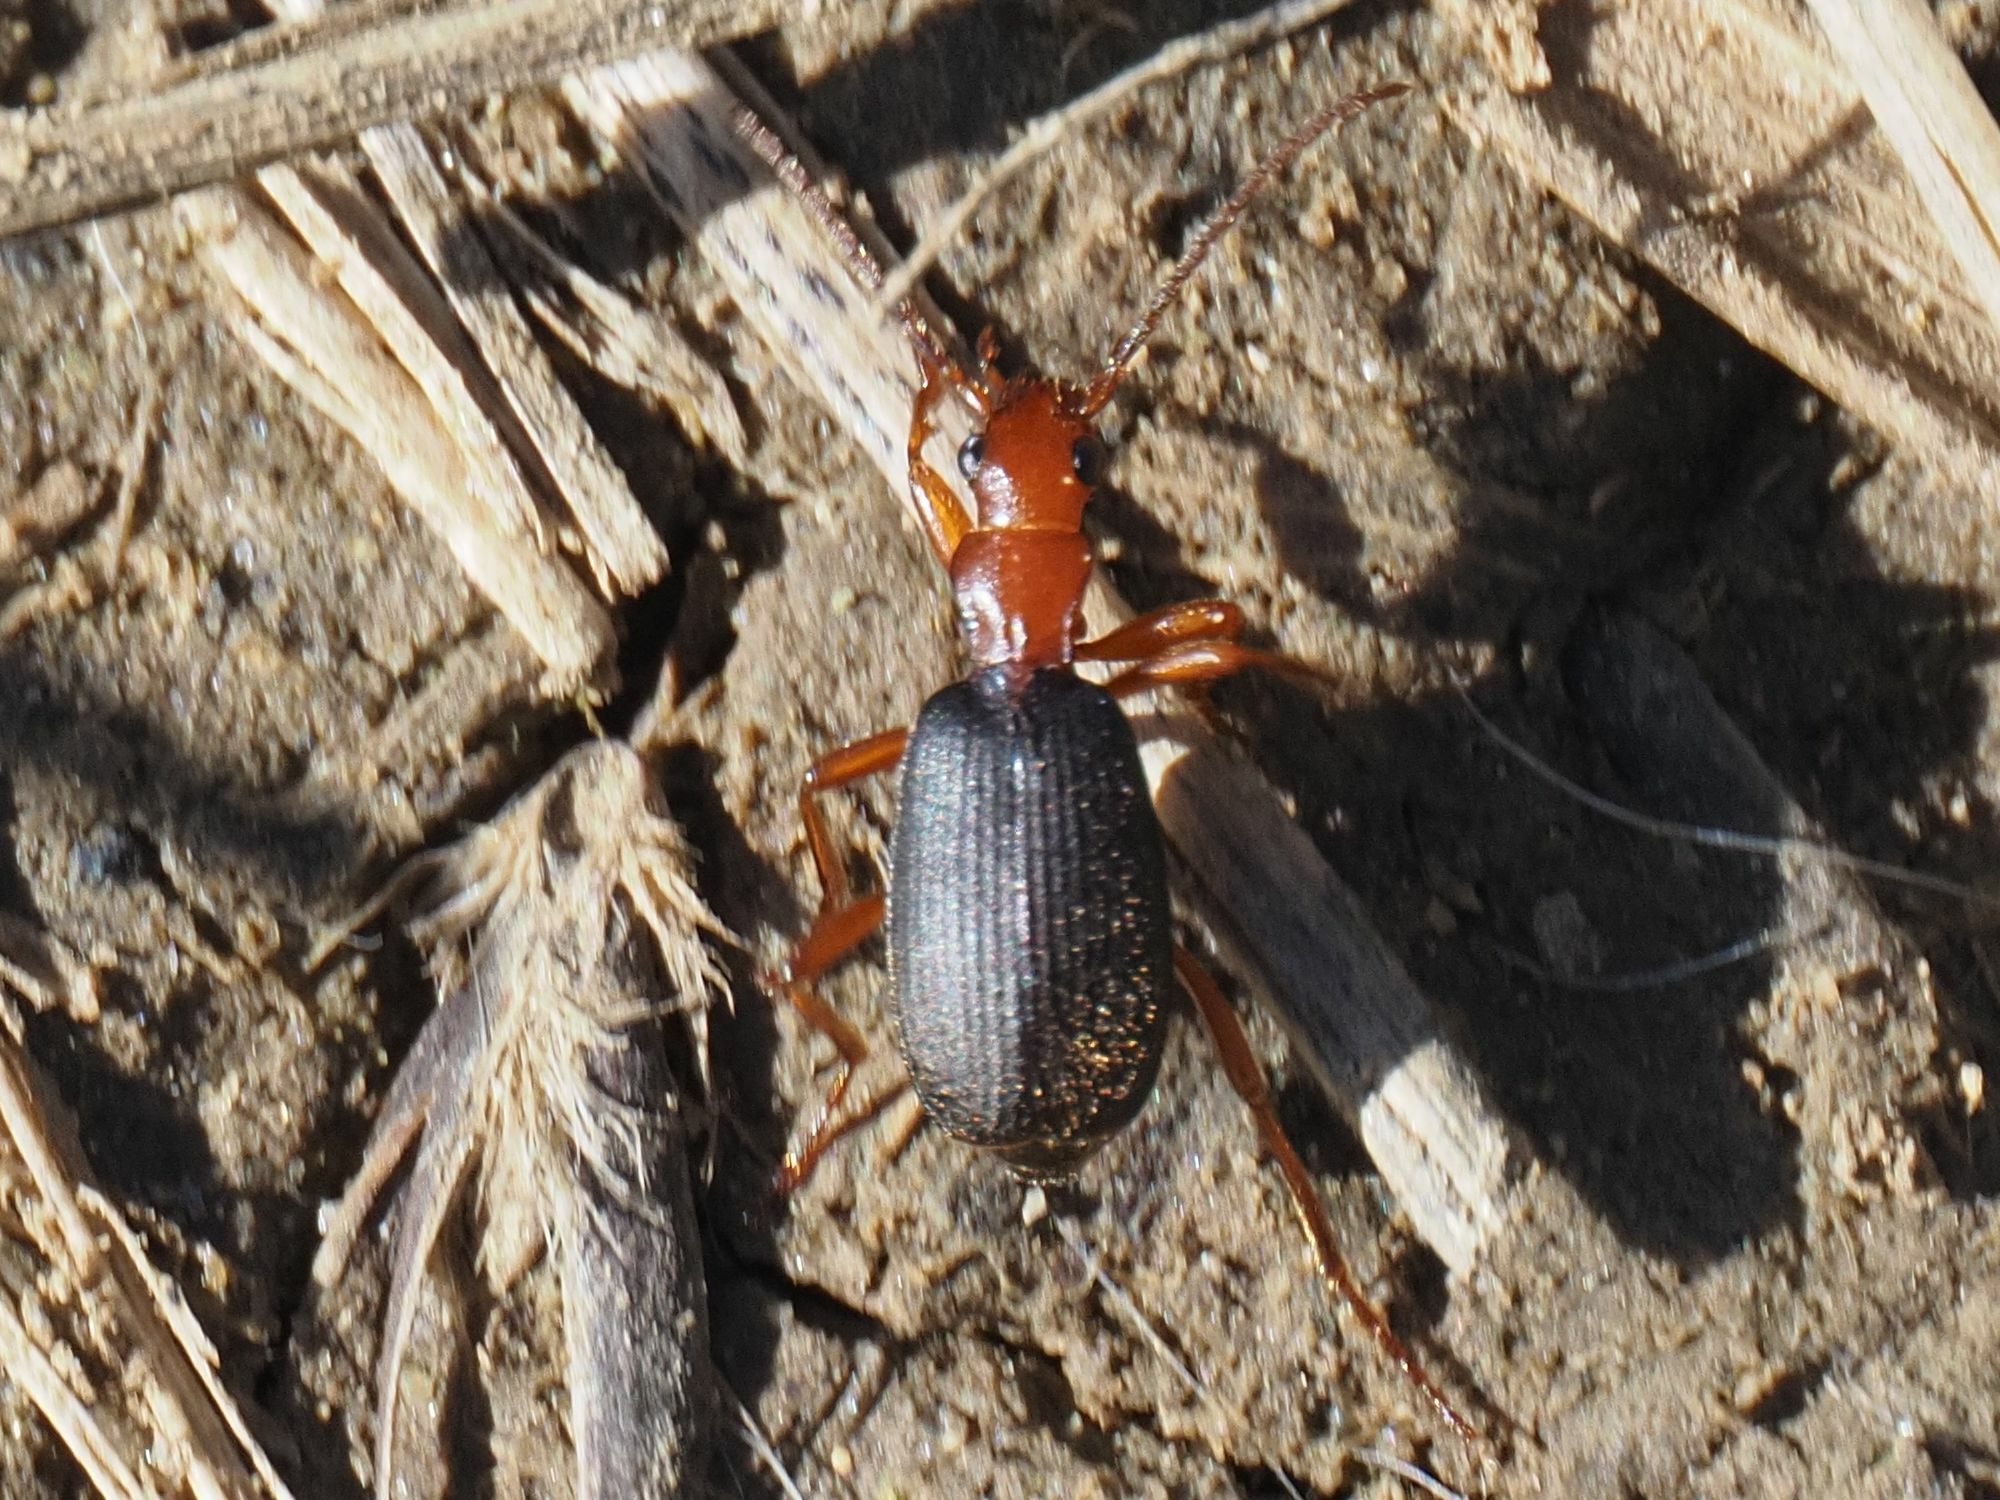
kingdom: Animalia
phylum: Arthropoda
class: Insecta
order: Coleoptera
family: Carabidae
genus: Brachinus
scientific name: Brachinus crepitans
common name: Bombadier beetle
